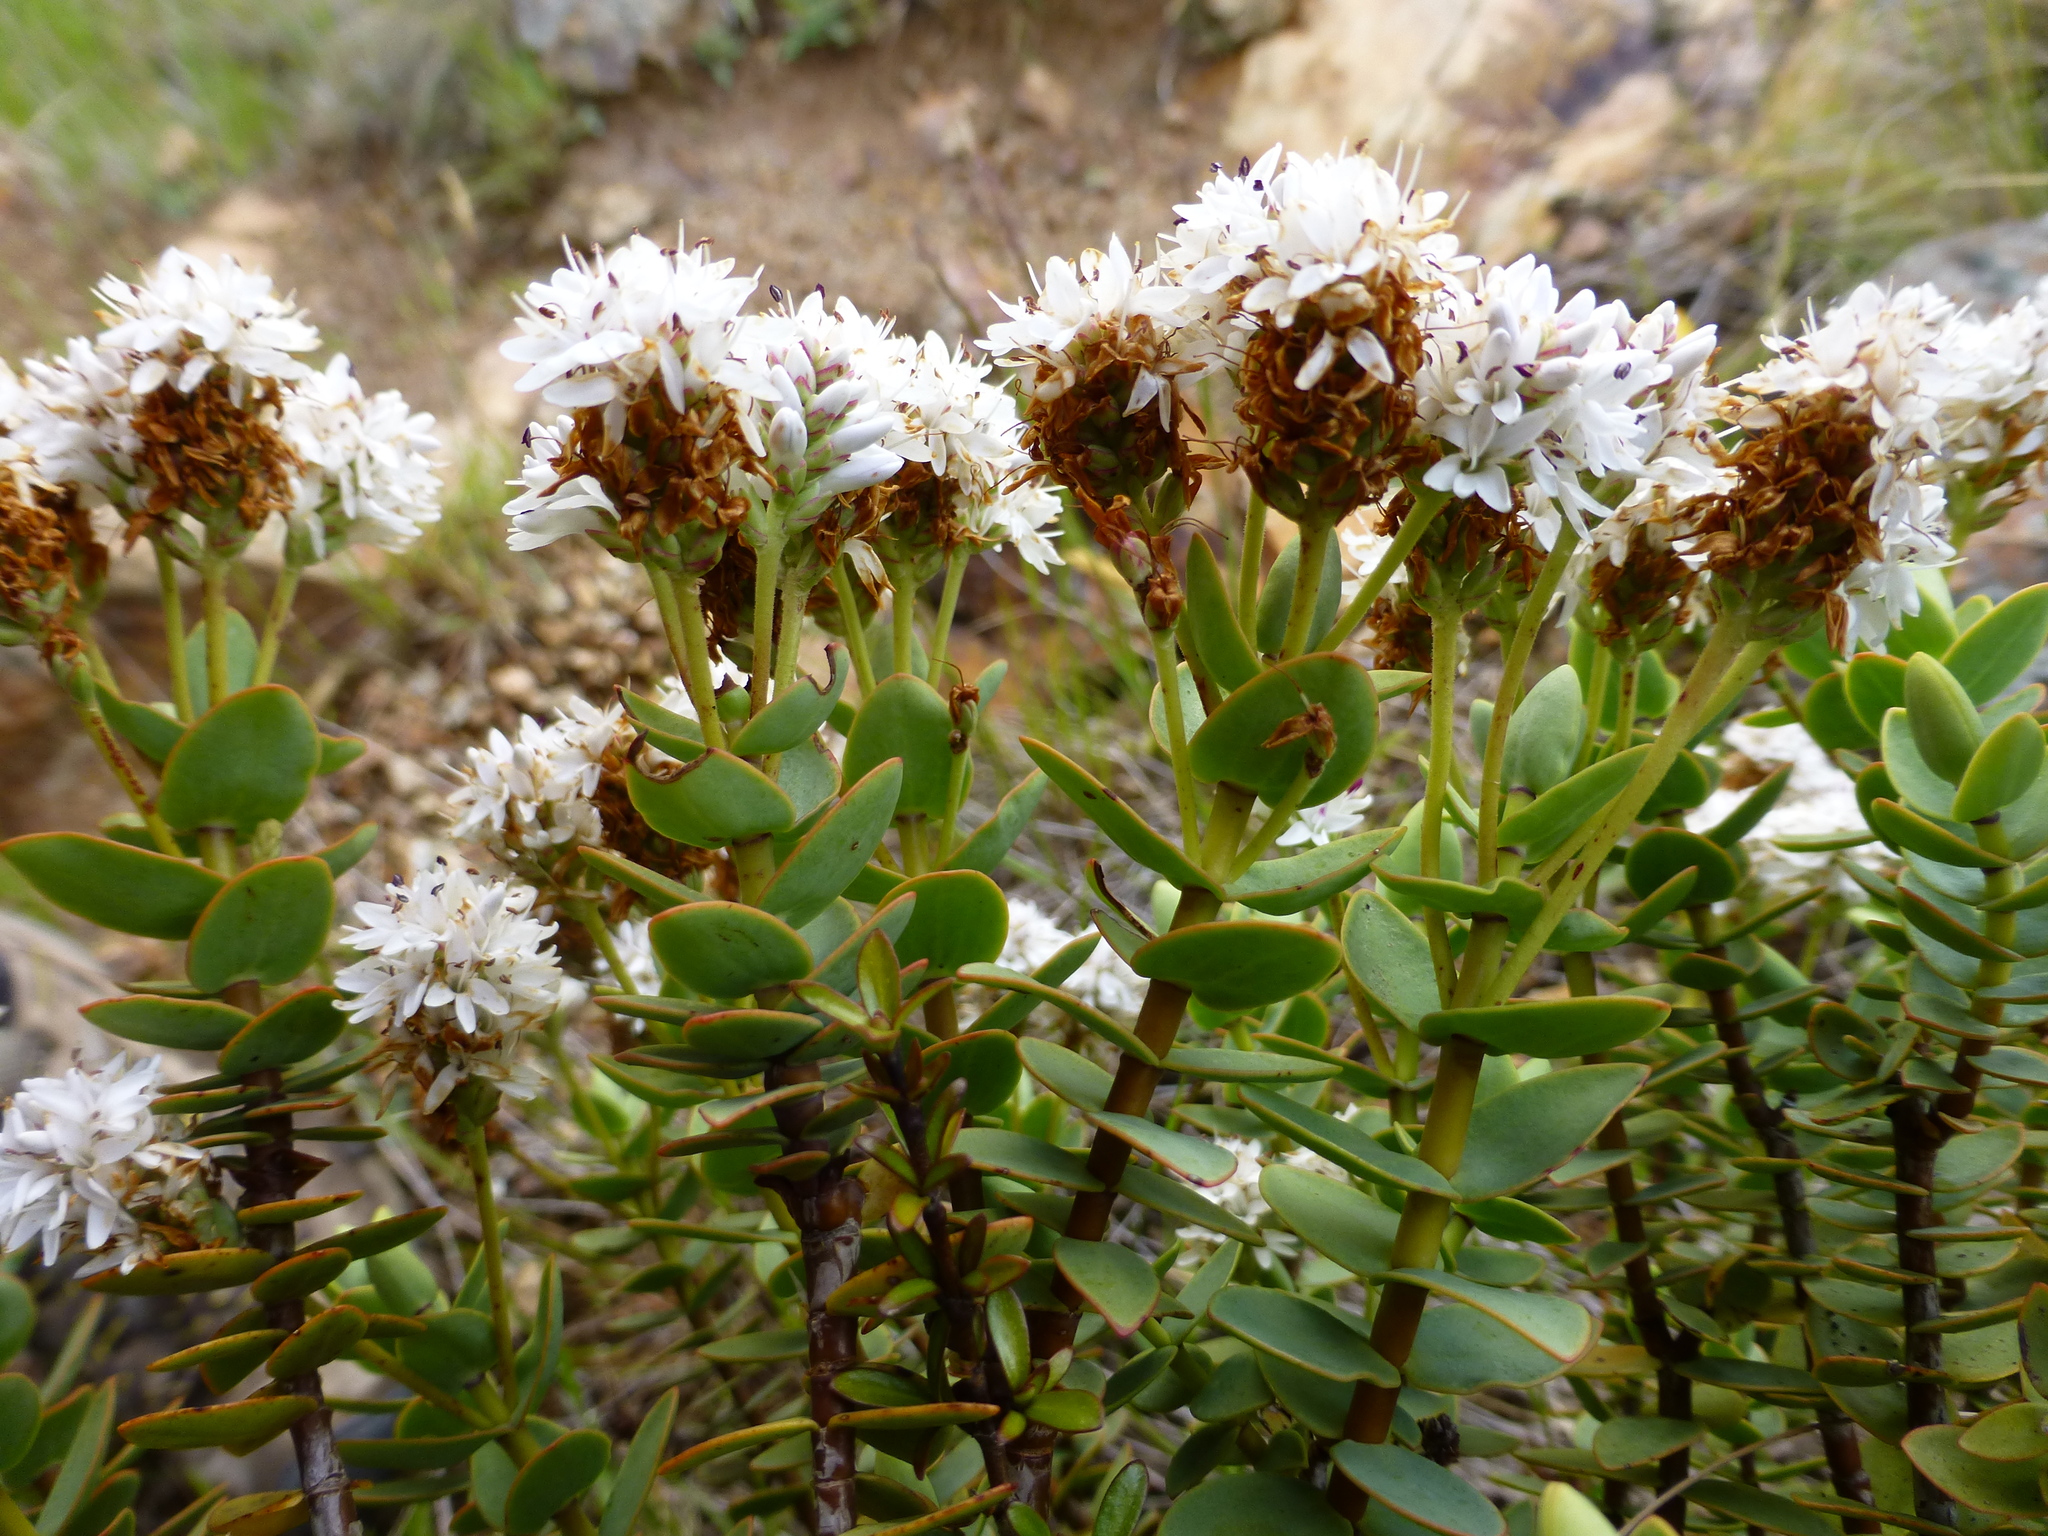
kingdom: Plantae
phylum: Tracheophyta
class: Magnoliopsida
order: Lamiales
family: Plantaginaceae
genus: Veronica
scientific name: Veronica amplexicaulis
